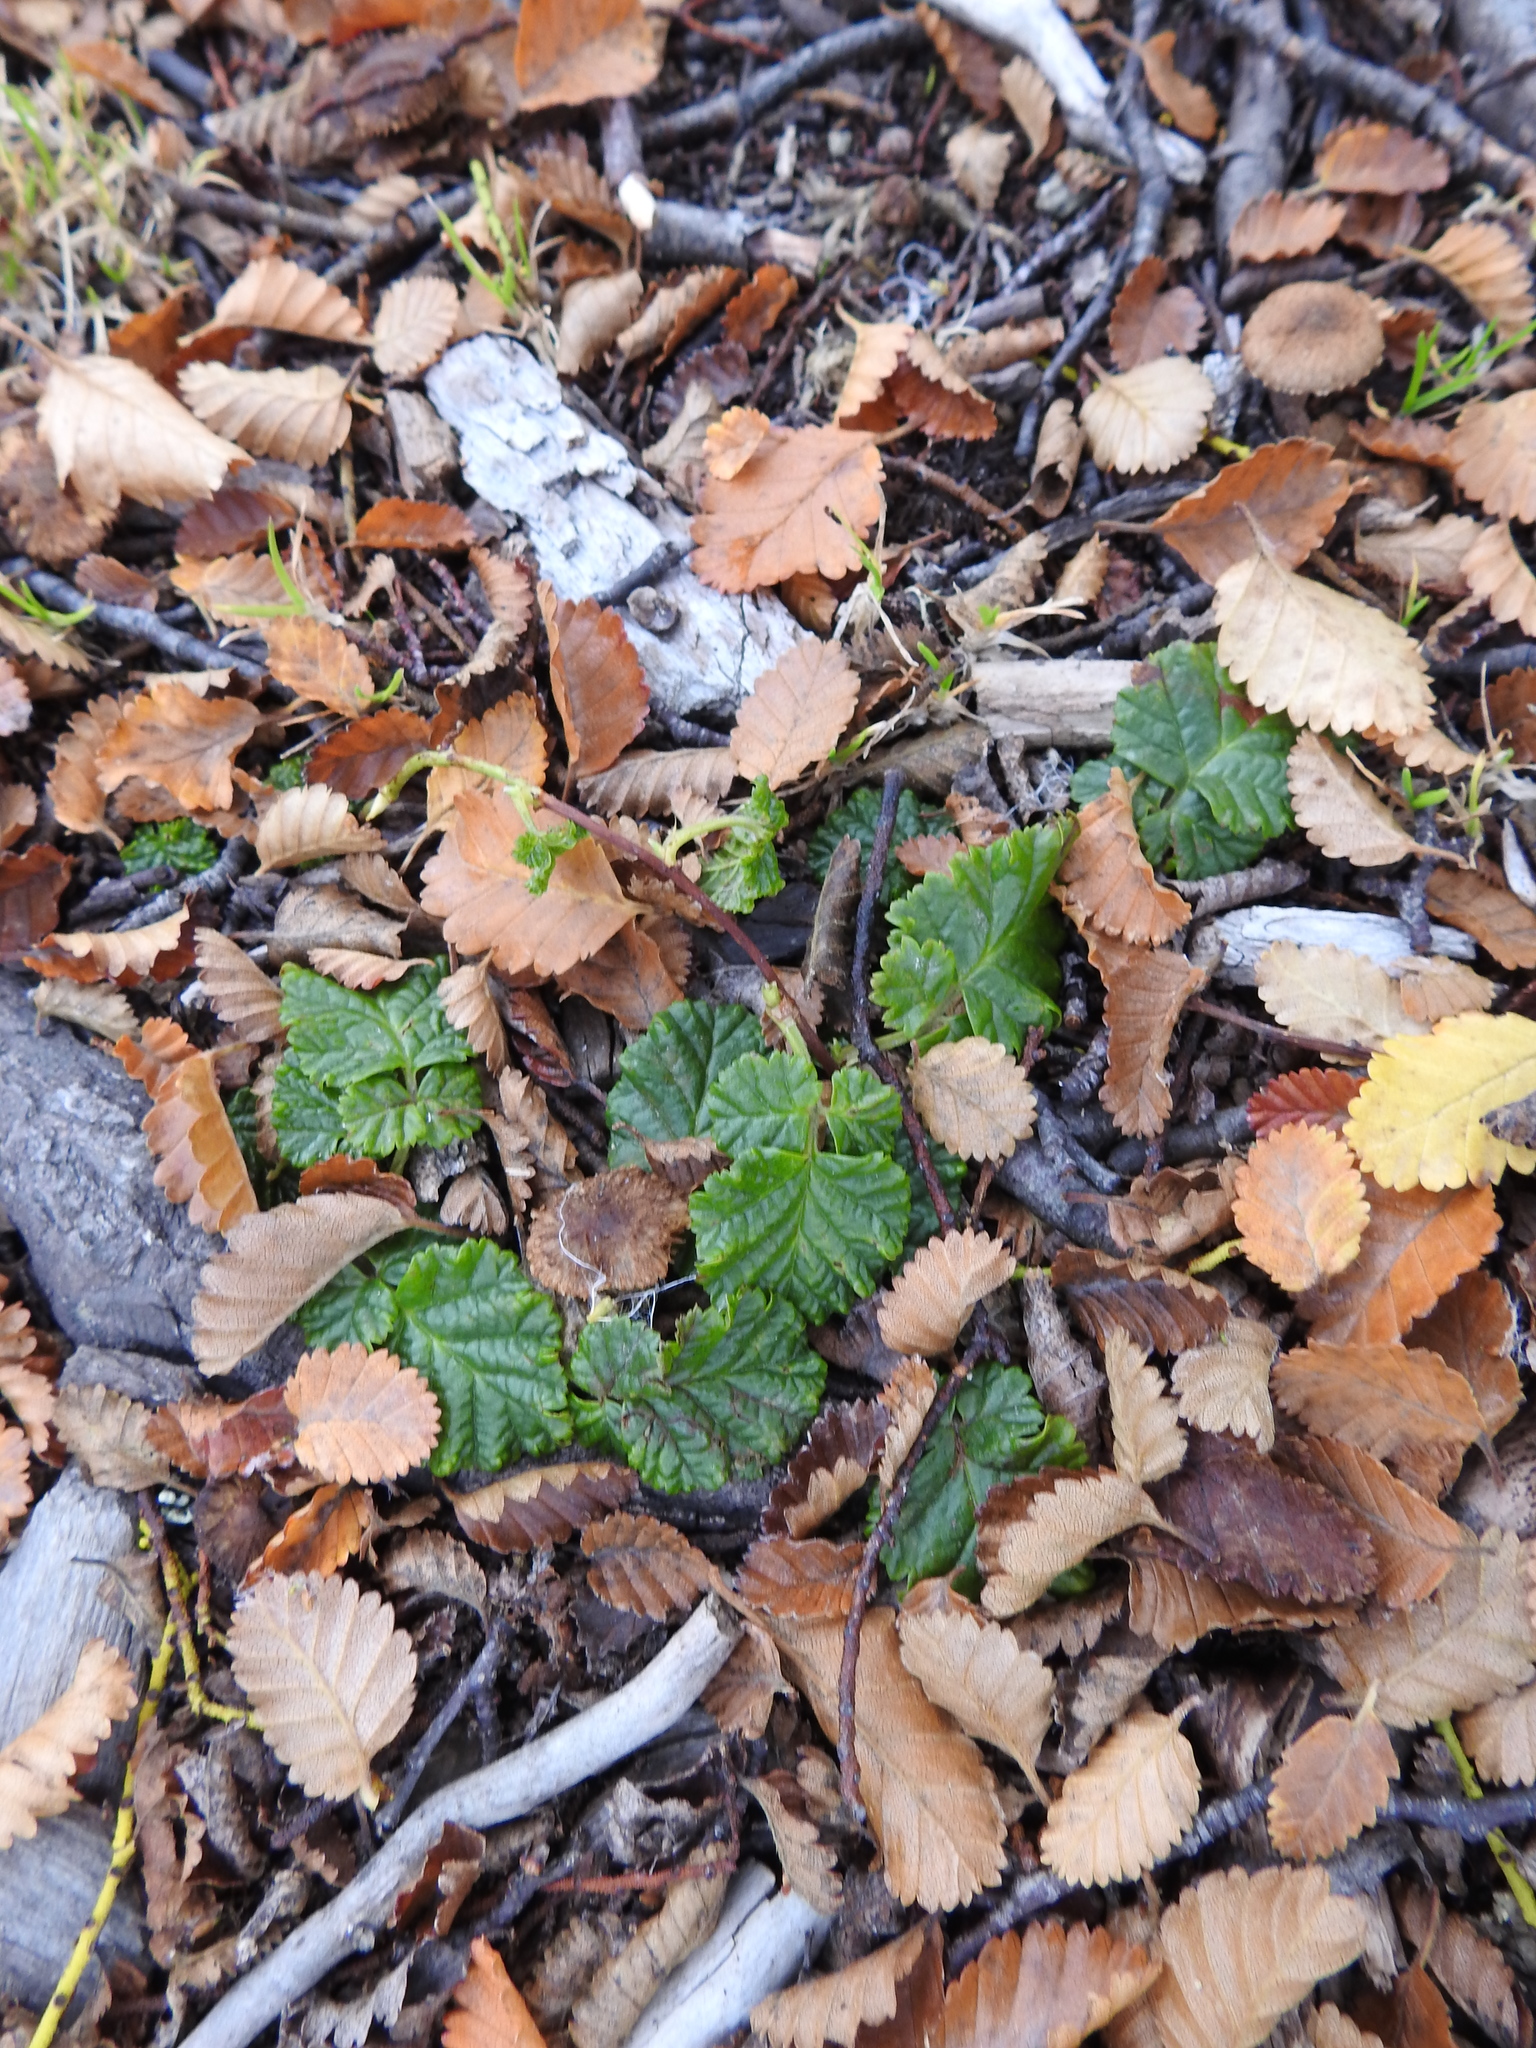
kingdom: Plantae
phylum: Tracheophyta
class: Magnoliopsida
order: Rosales
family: Rosaceae
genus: Rubus
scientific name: Rubus geoides
